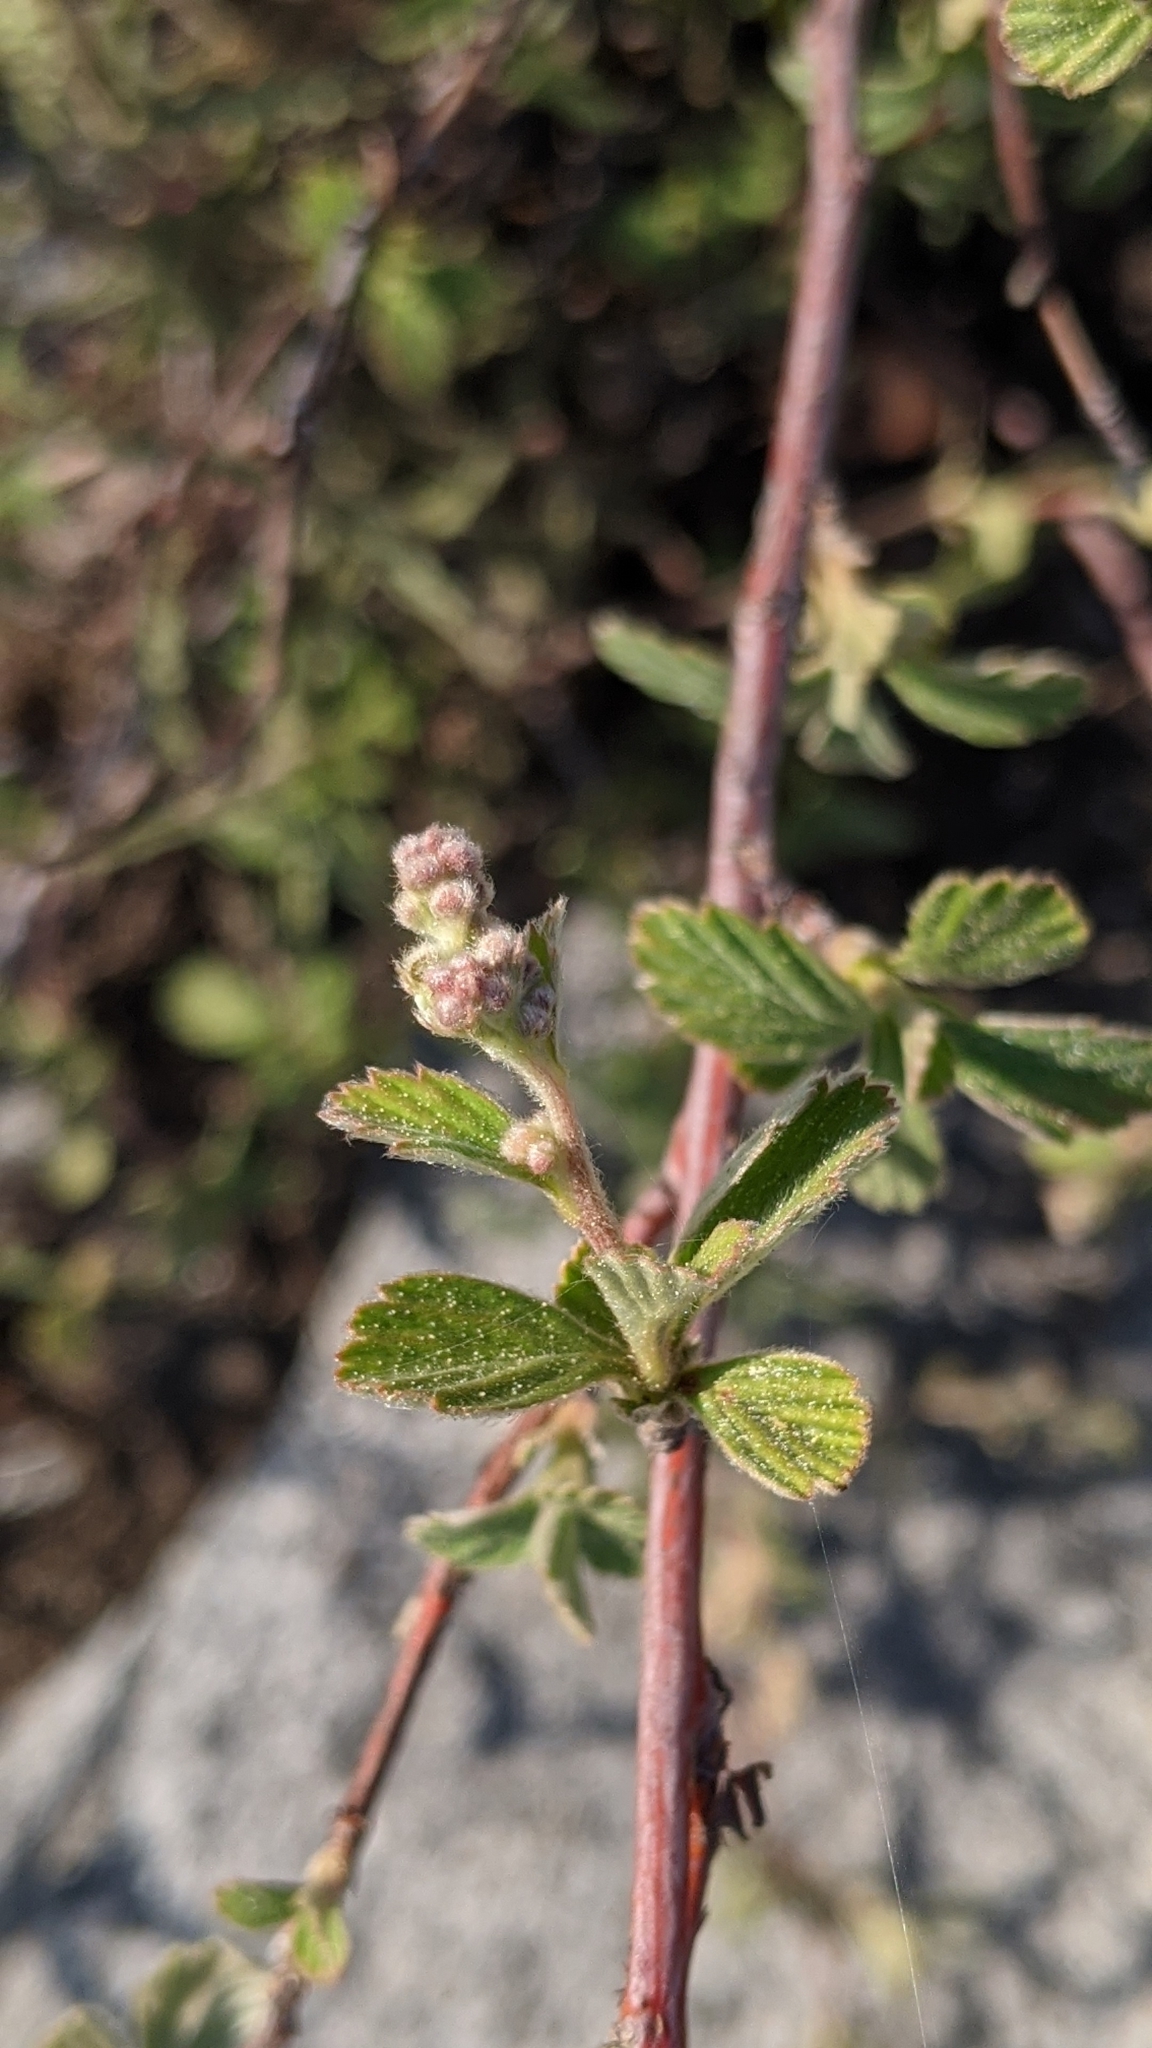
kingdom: Plantae
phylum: Tracheophyta
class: Magnoliopsida
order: Rosales
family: Rosaceae
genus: Holodiscus
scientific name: Holodiscus discolor
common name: Oceanspray
